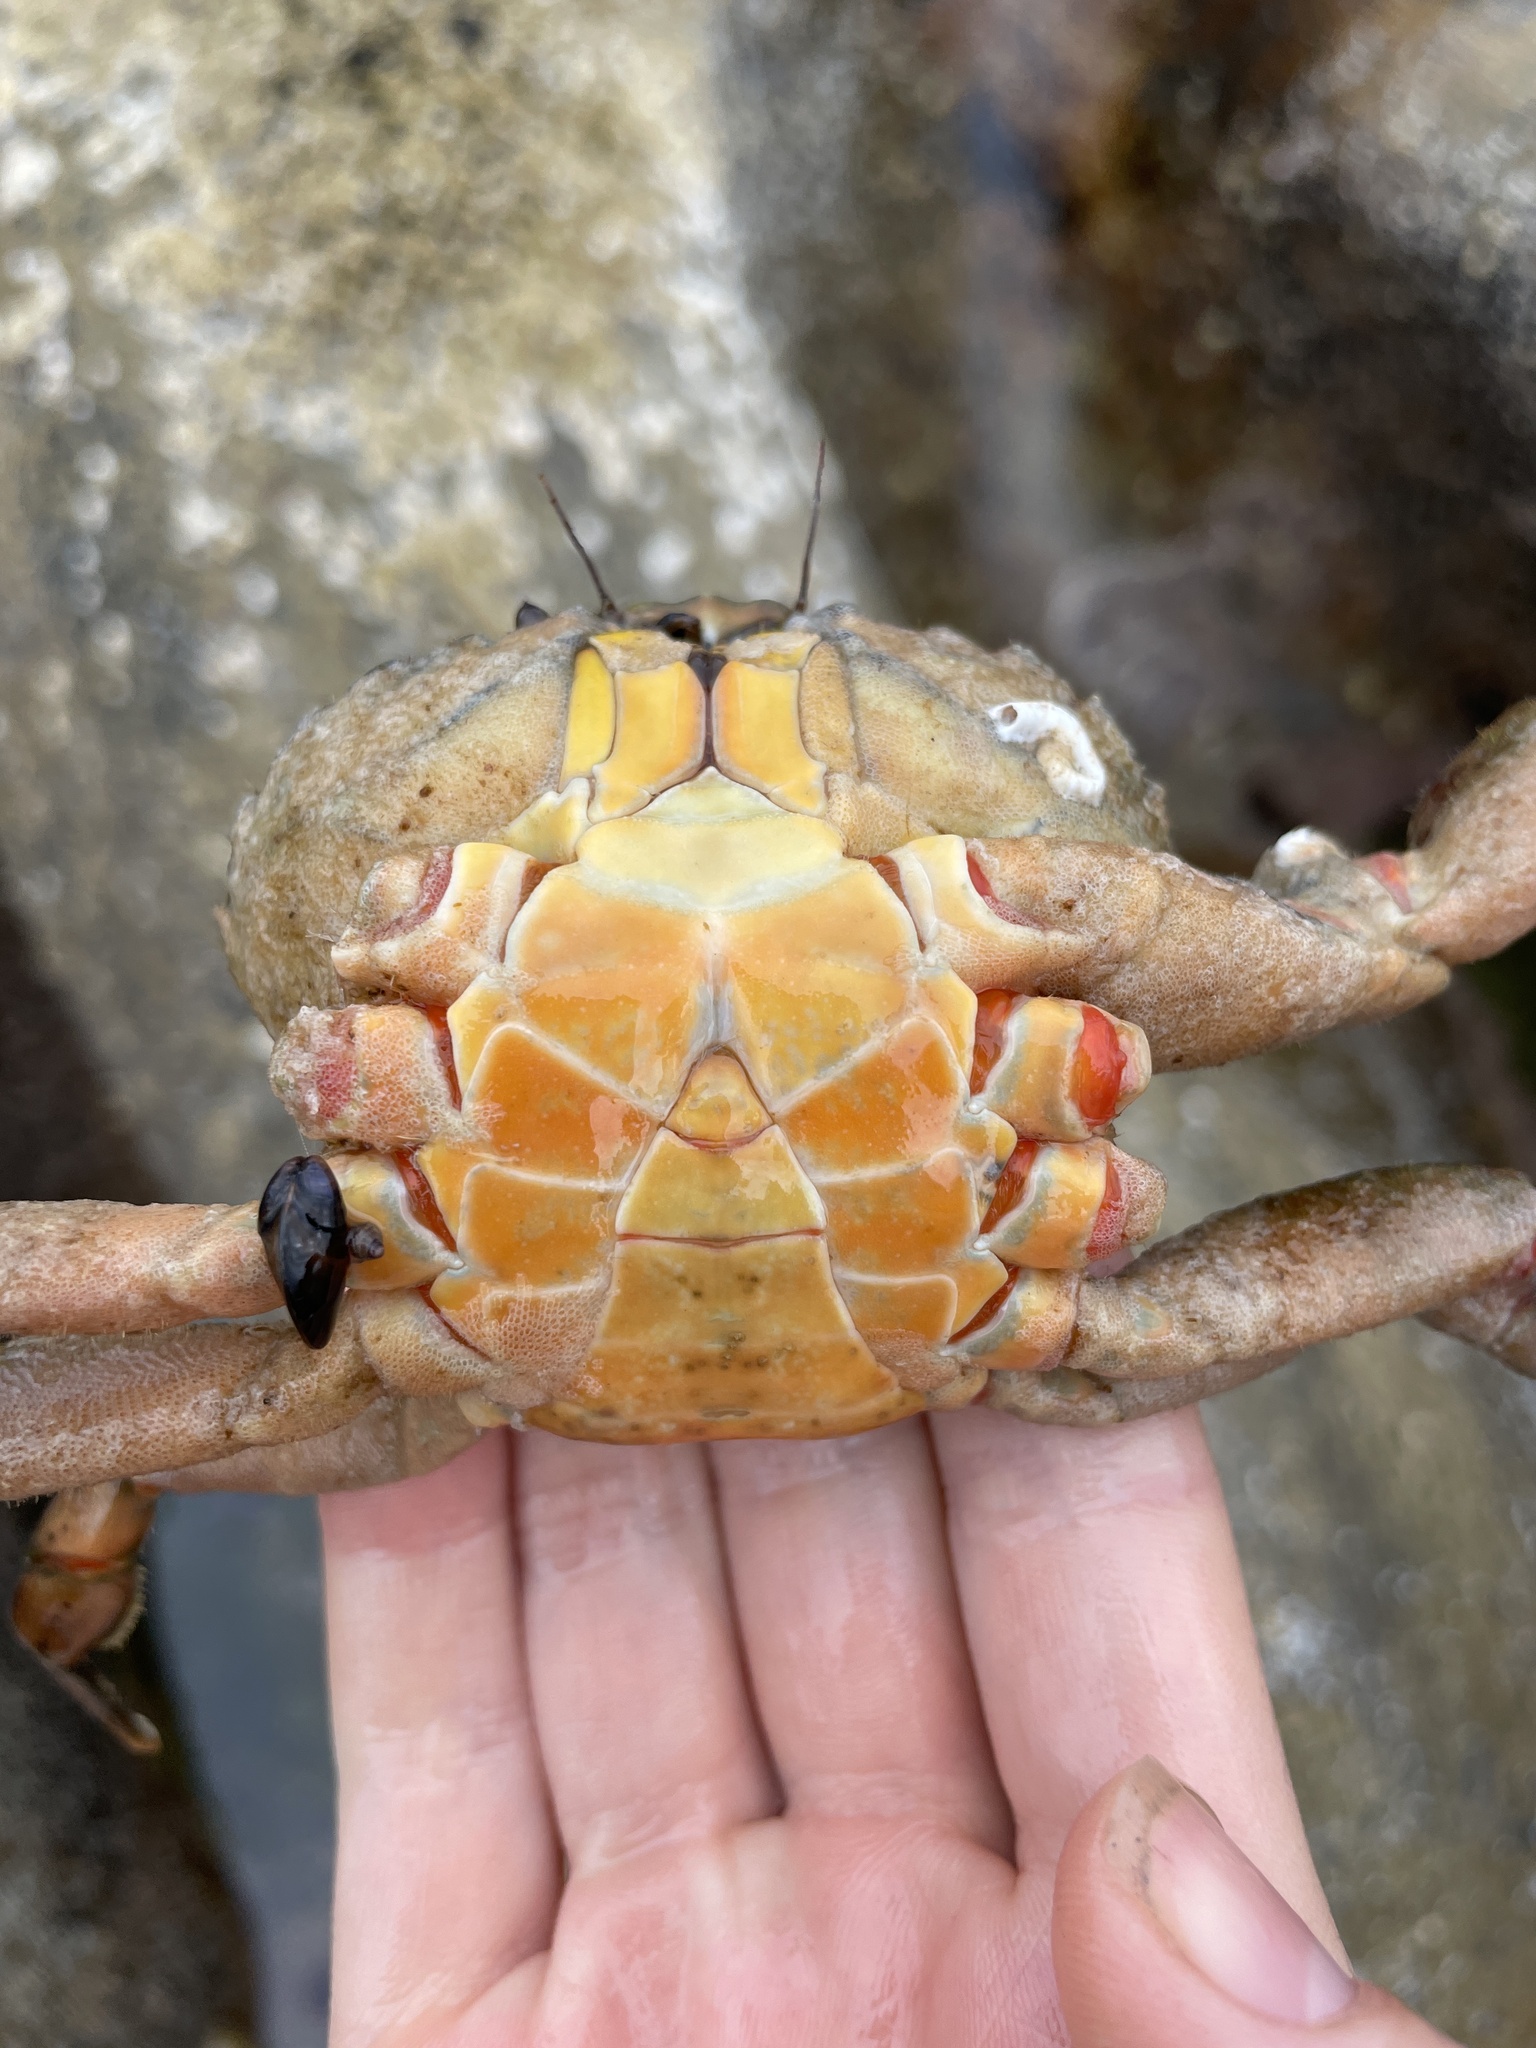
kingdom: Animalia
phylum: Arthropoda
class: Malacostraca
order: Decapoda
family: Carcinidae
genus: Carcinus
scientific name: Carcinus maenas
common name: European green crab
